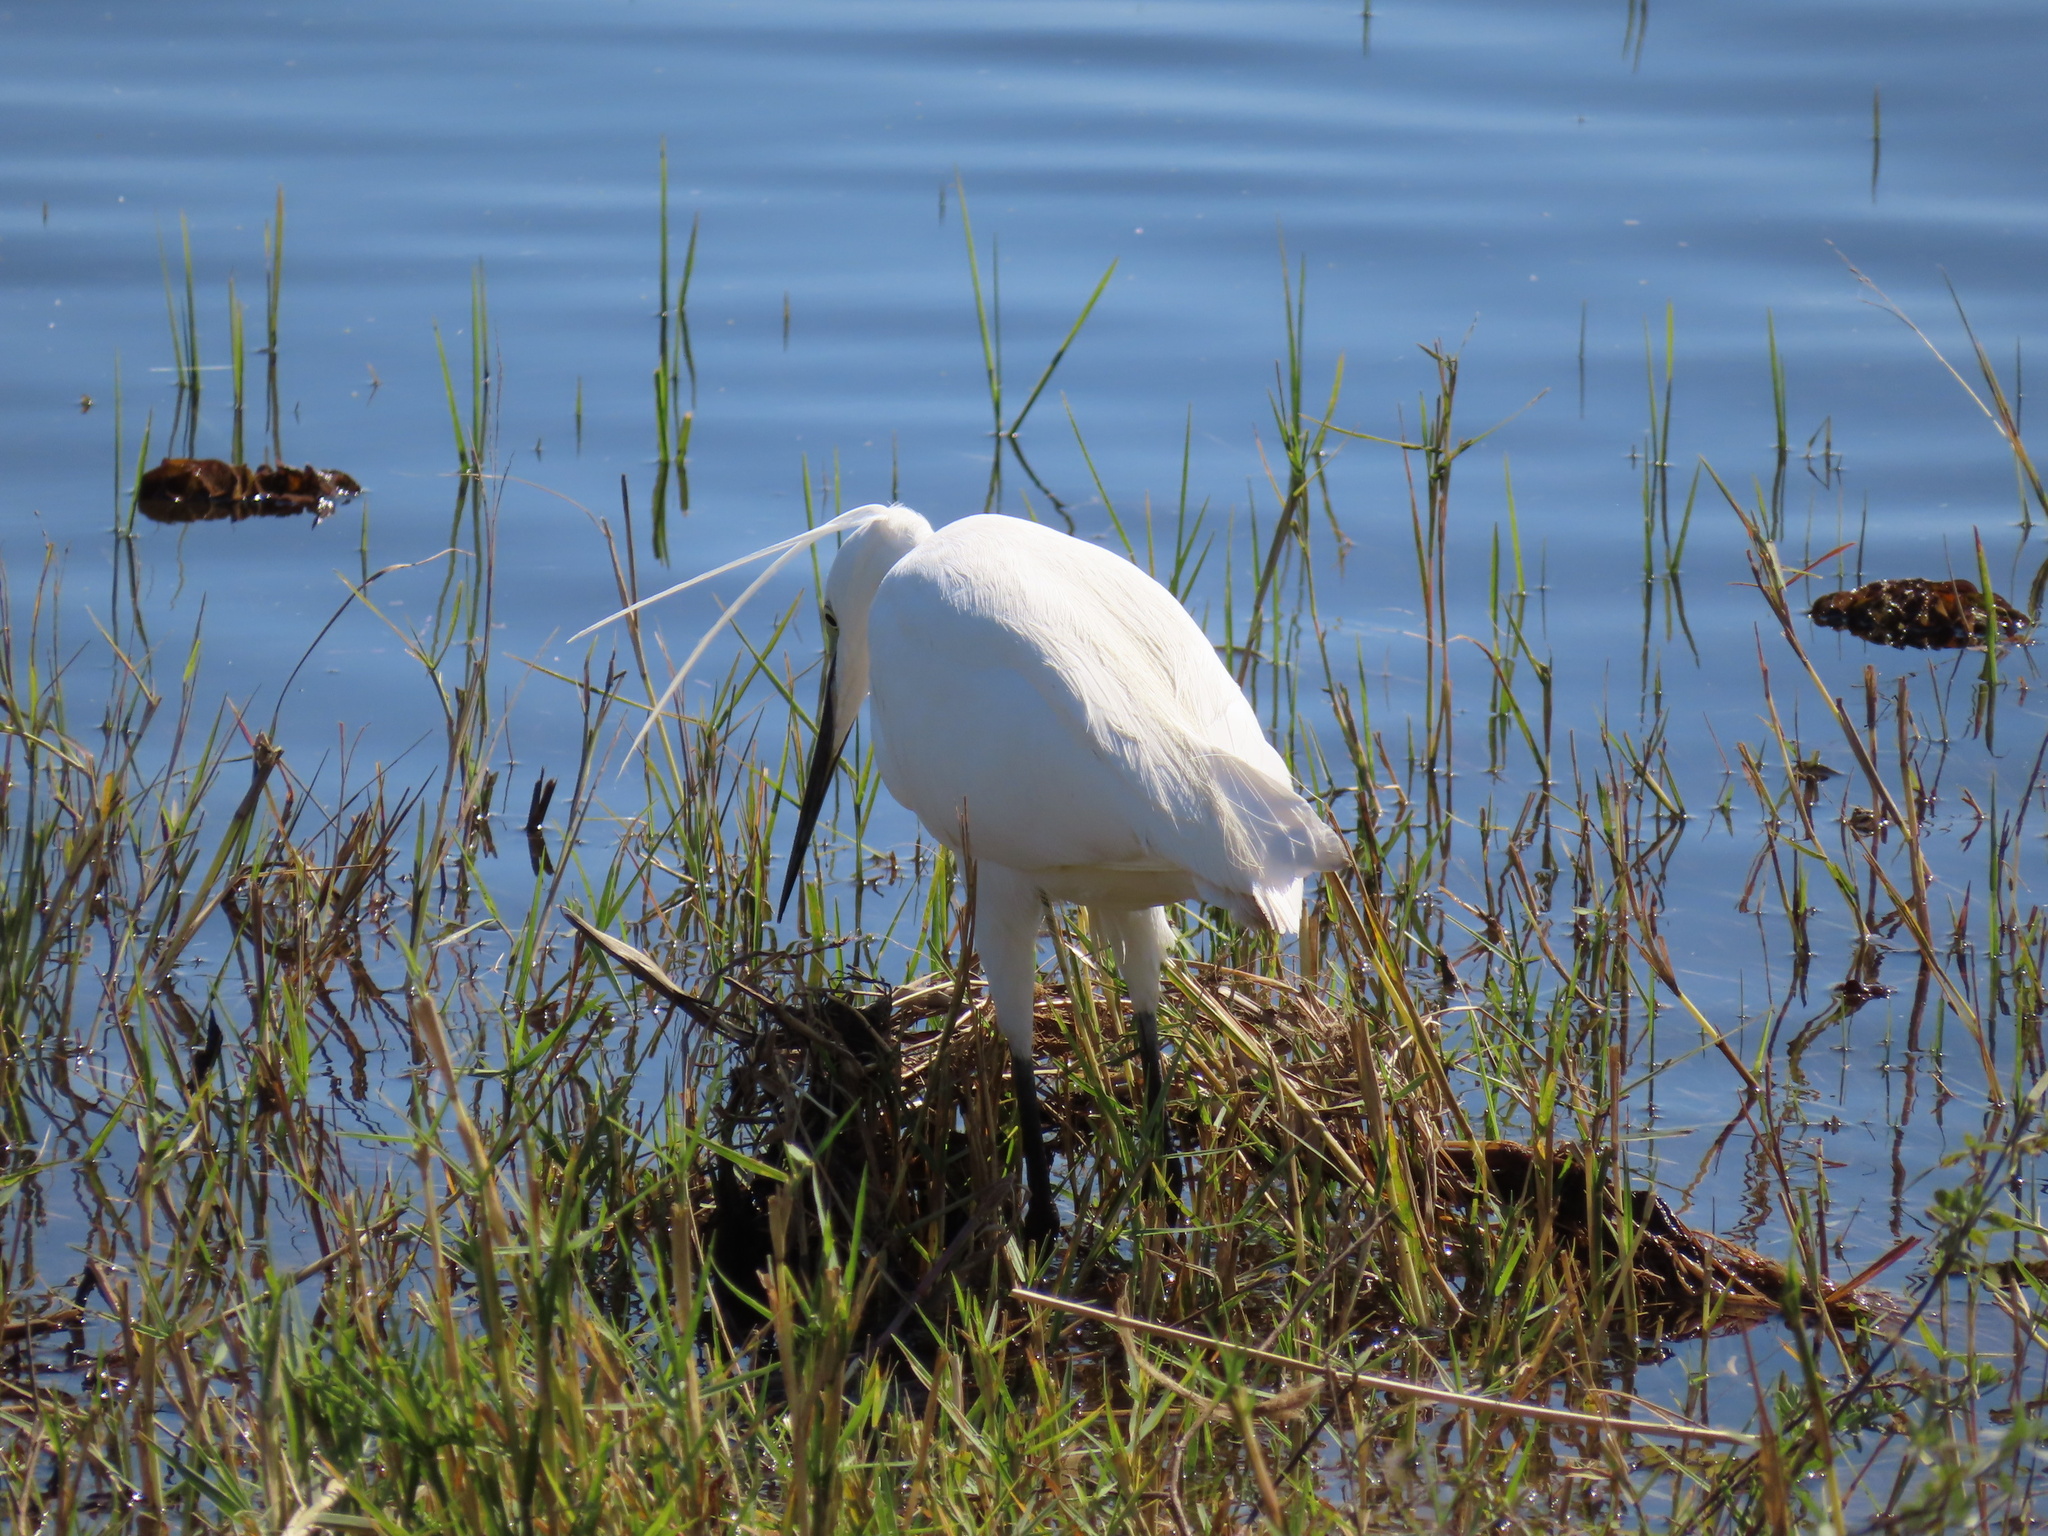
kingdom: Animalia
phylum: Chordata
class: Aves
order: Pelecaniformes
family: Ardeidae
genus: Egretta
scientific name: Egretta garzetta
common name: Little egret
